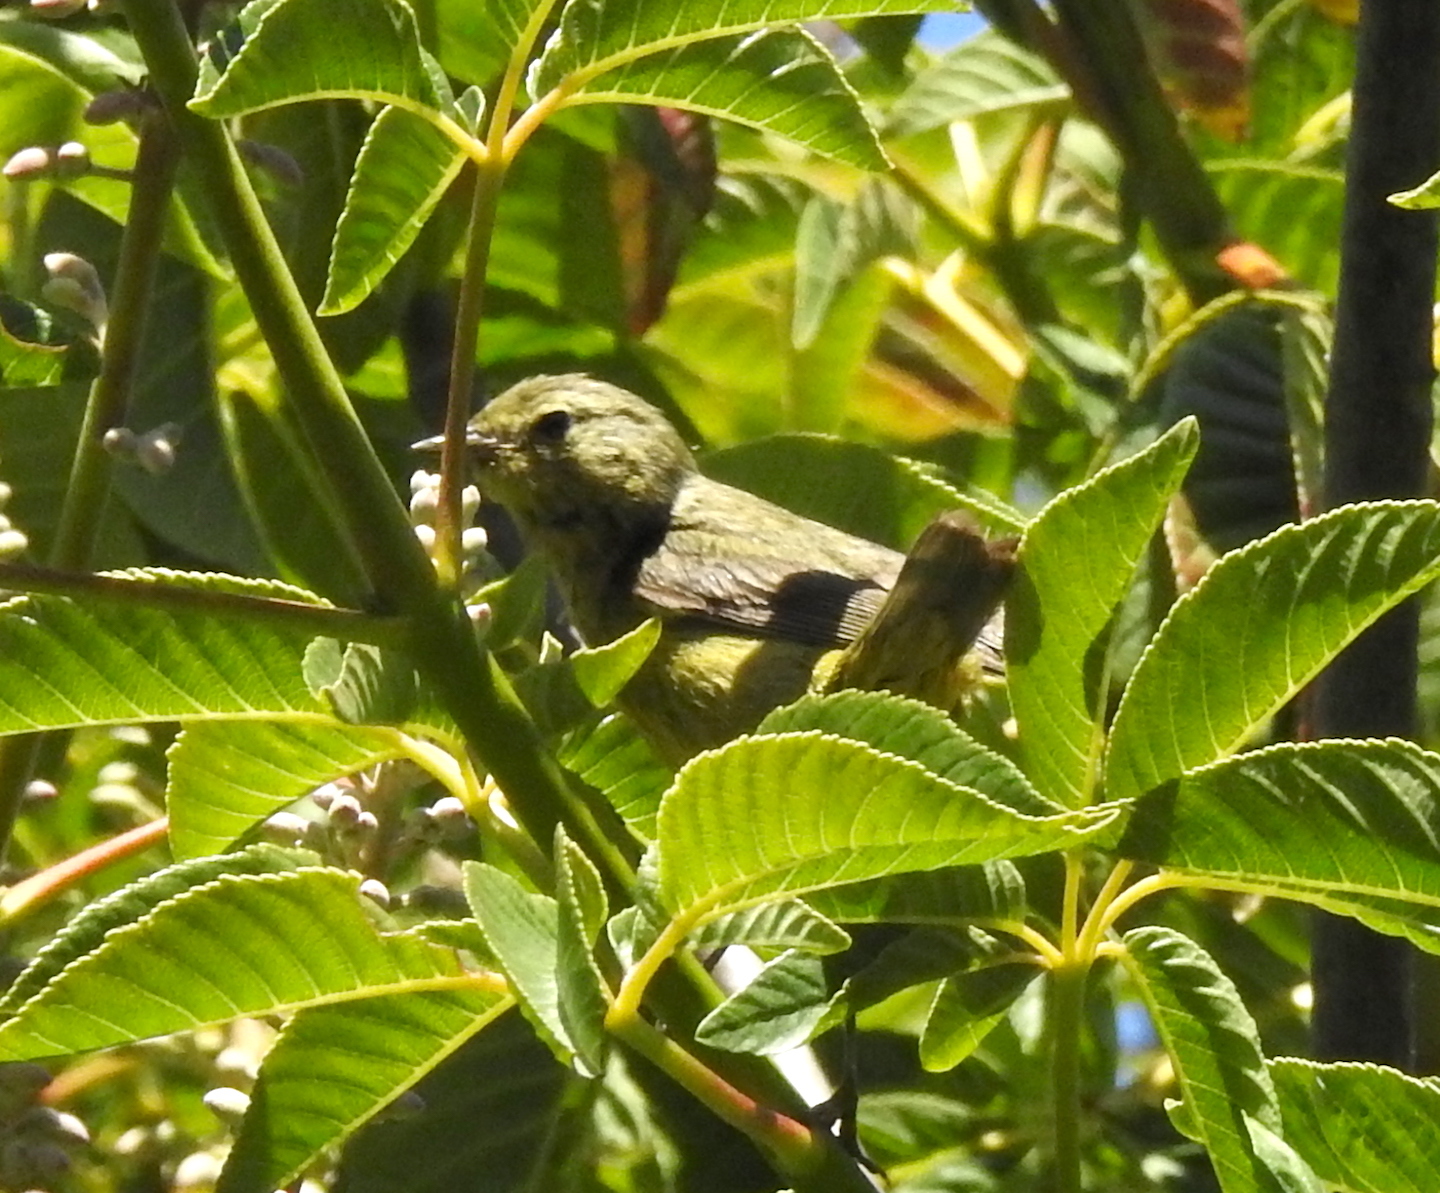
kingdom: Animalia
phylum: Chordata
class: Aves
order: Passeriformes
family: Parulidae
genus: Leiothlypis
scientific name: Leiothlypis celata
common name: Orange-crowned warbler
